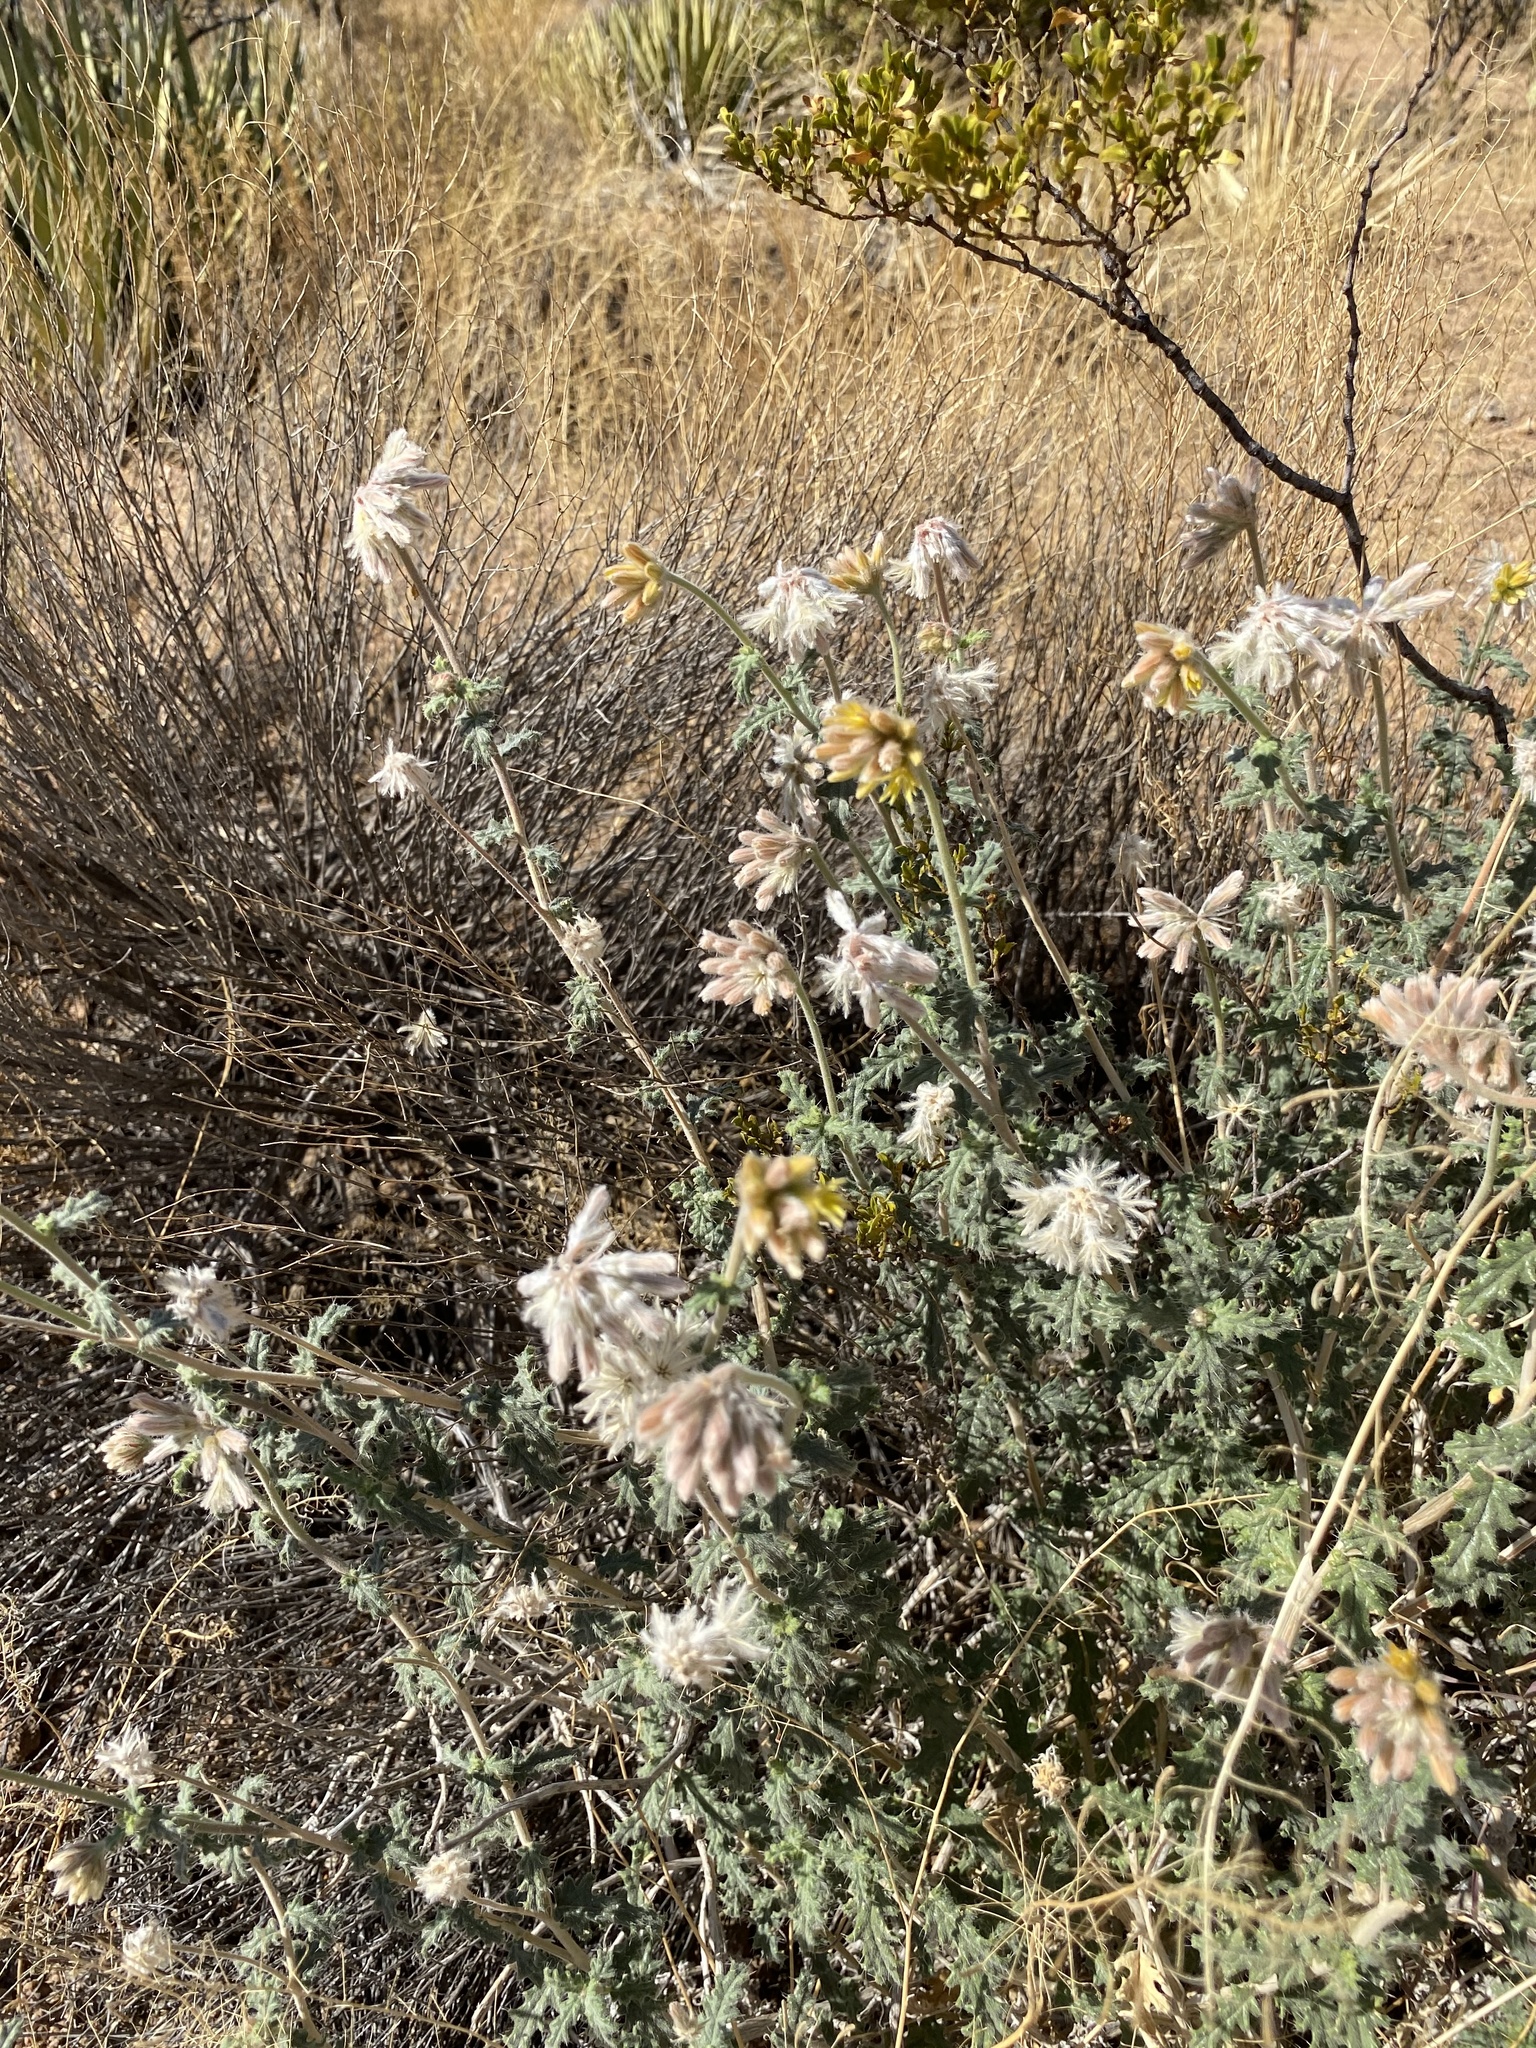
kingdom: Plantae
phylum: Tracheophyta
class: Magnoliopsida
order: Cornales
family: Loasaceae
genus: Cevallia
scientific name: Cevallia sinuata
